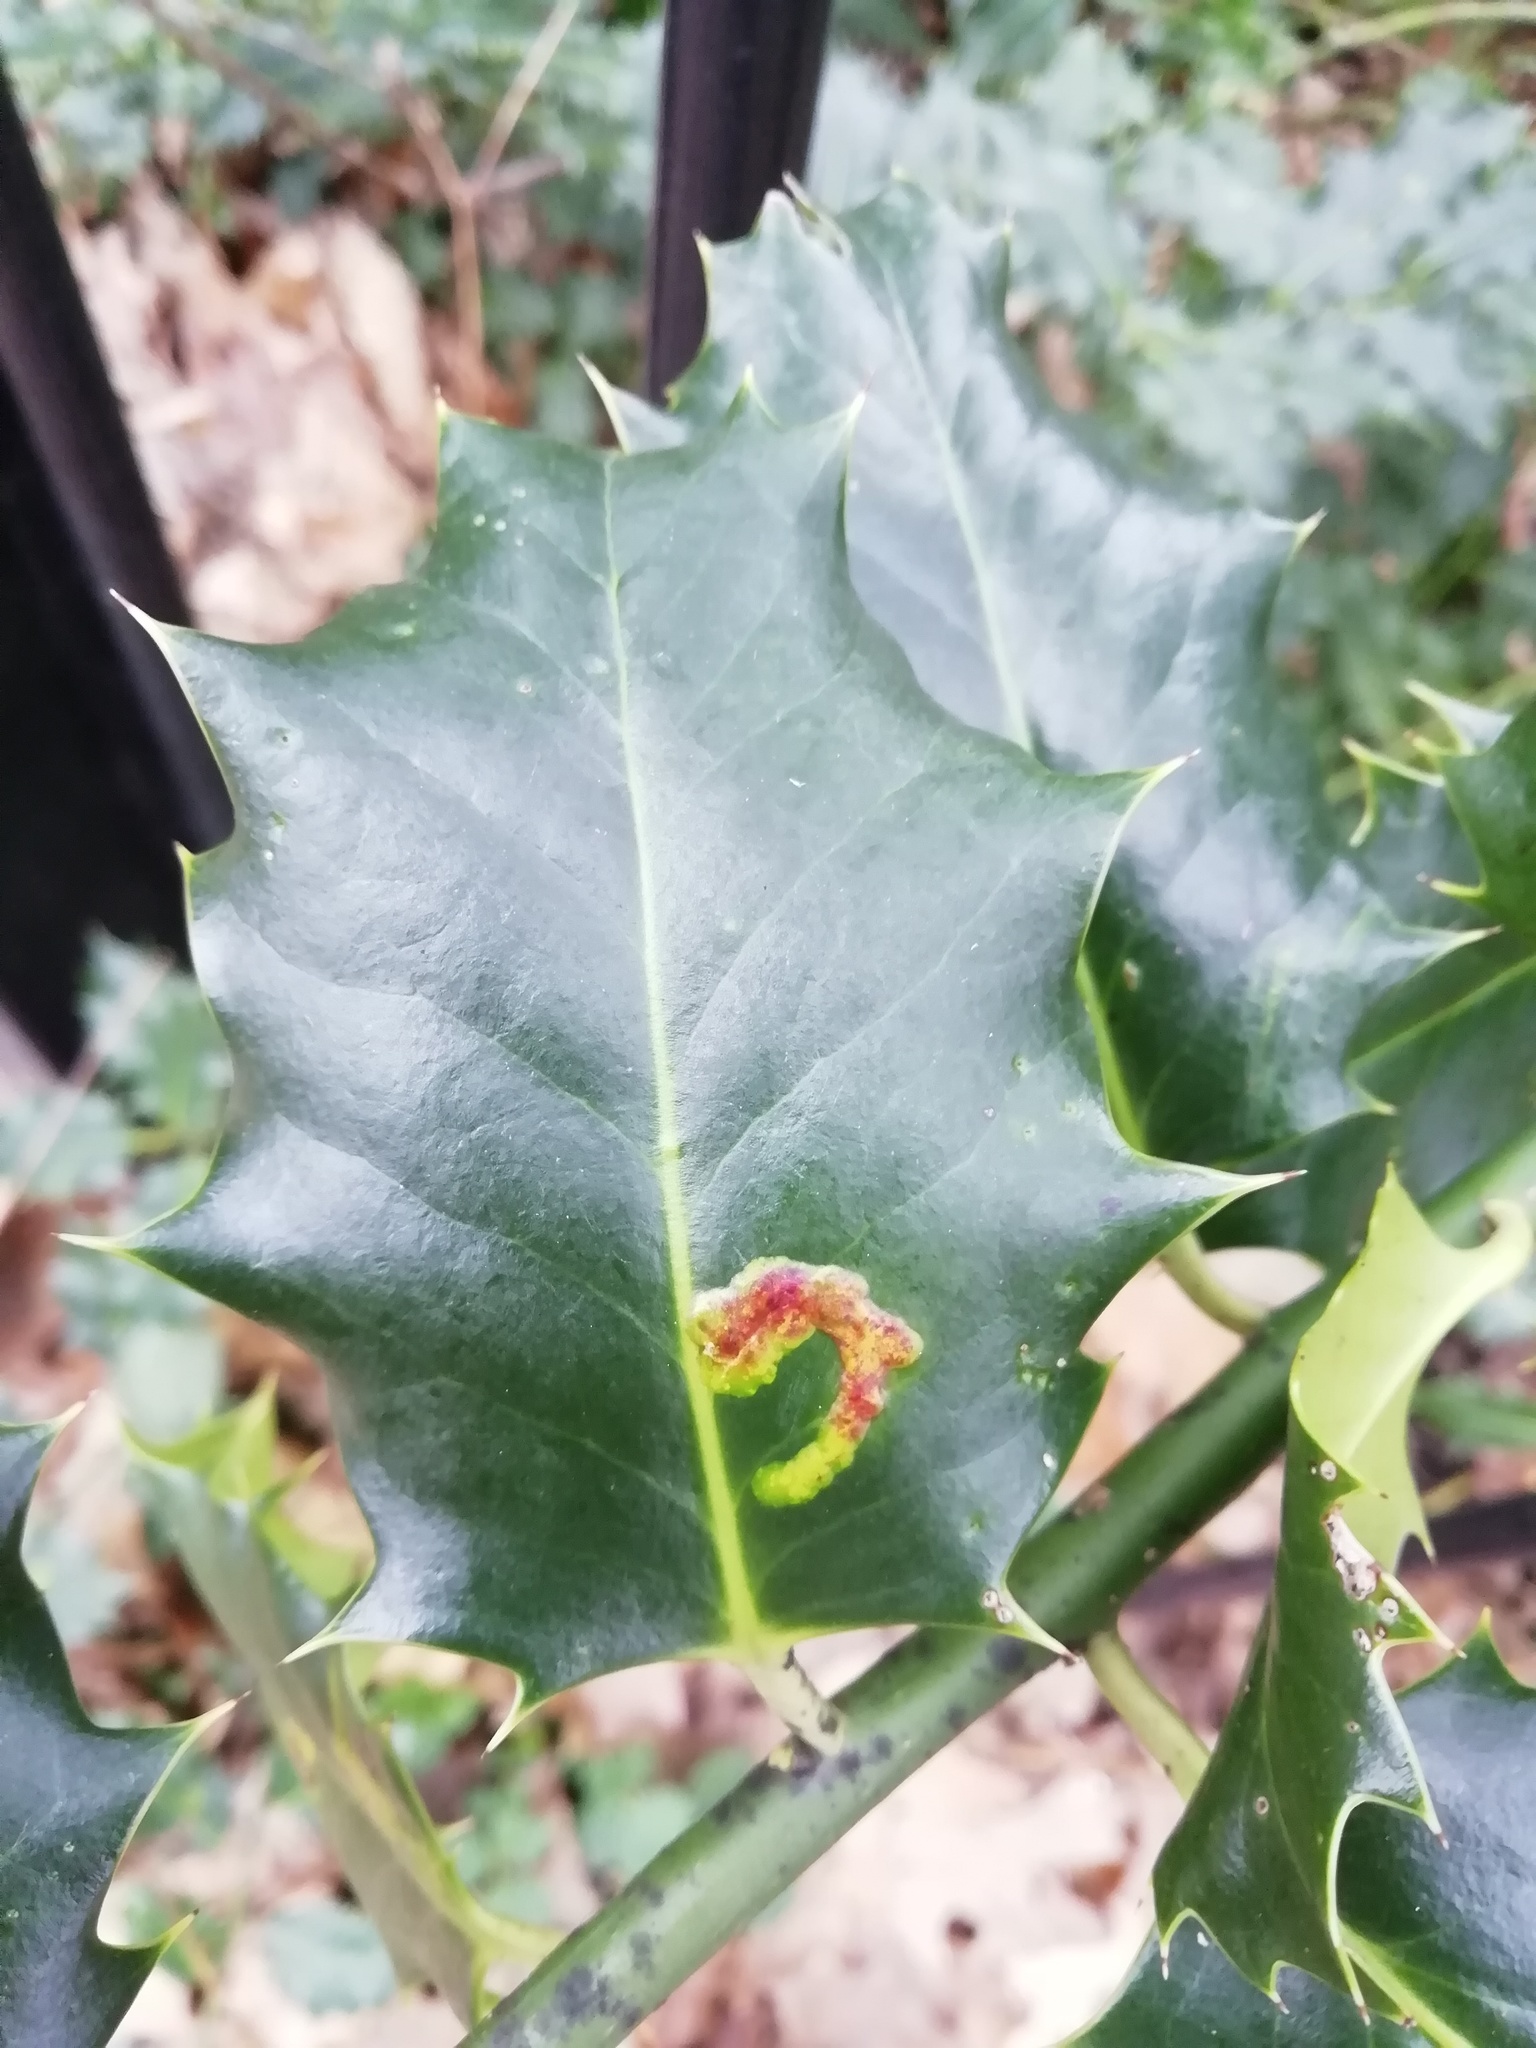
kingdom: Animalia
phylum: Arthropoda
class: Insecta
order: Diptera
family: Agromyzidae
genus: Phytomyza
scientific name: Phytomyza ilicis
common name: Holly leafminer
